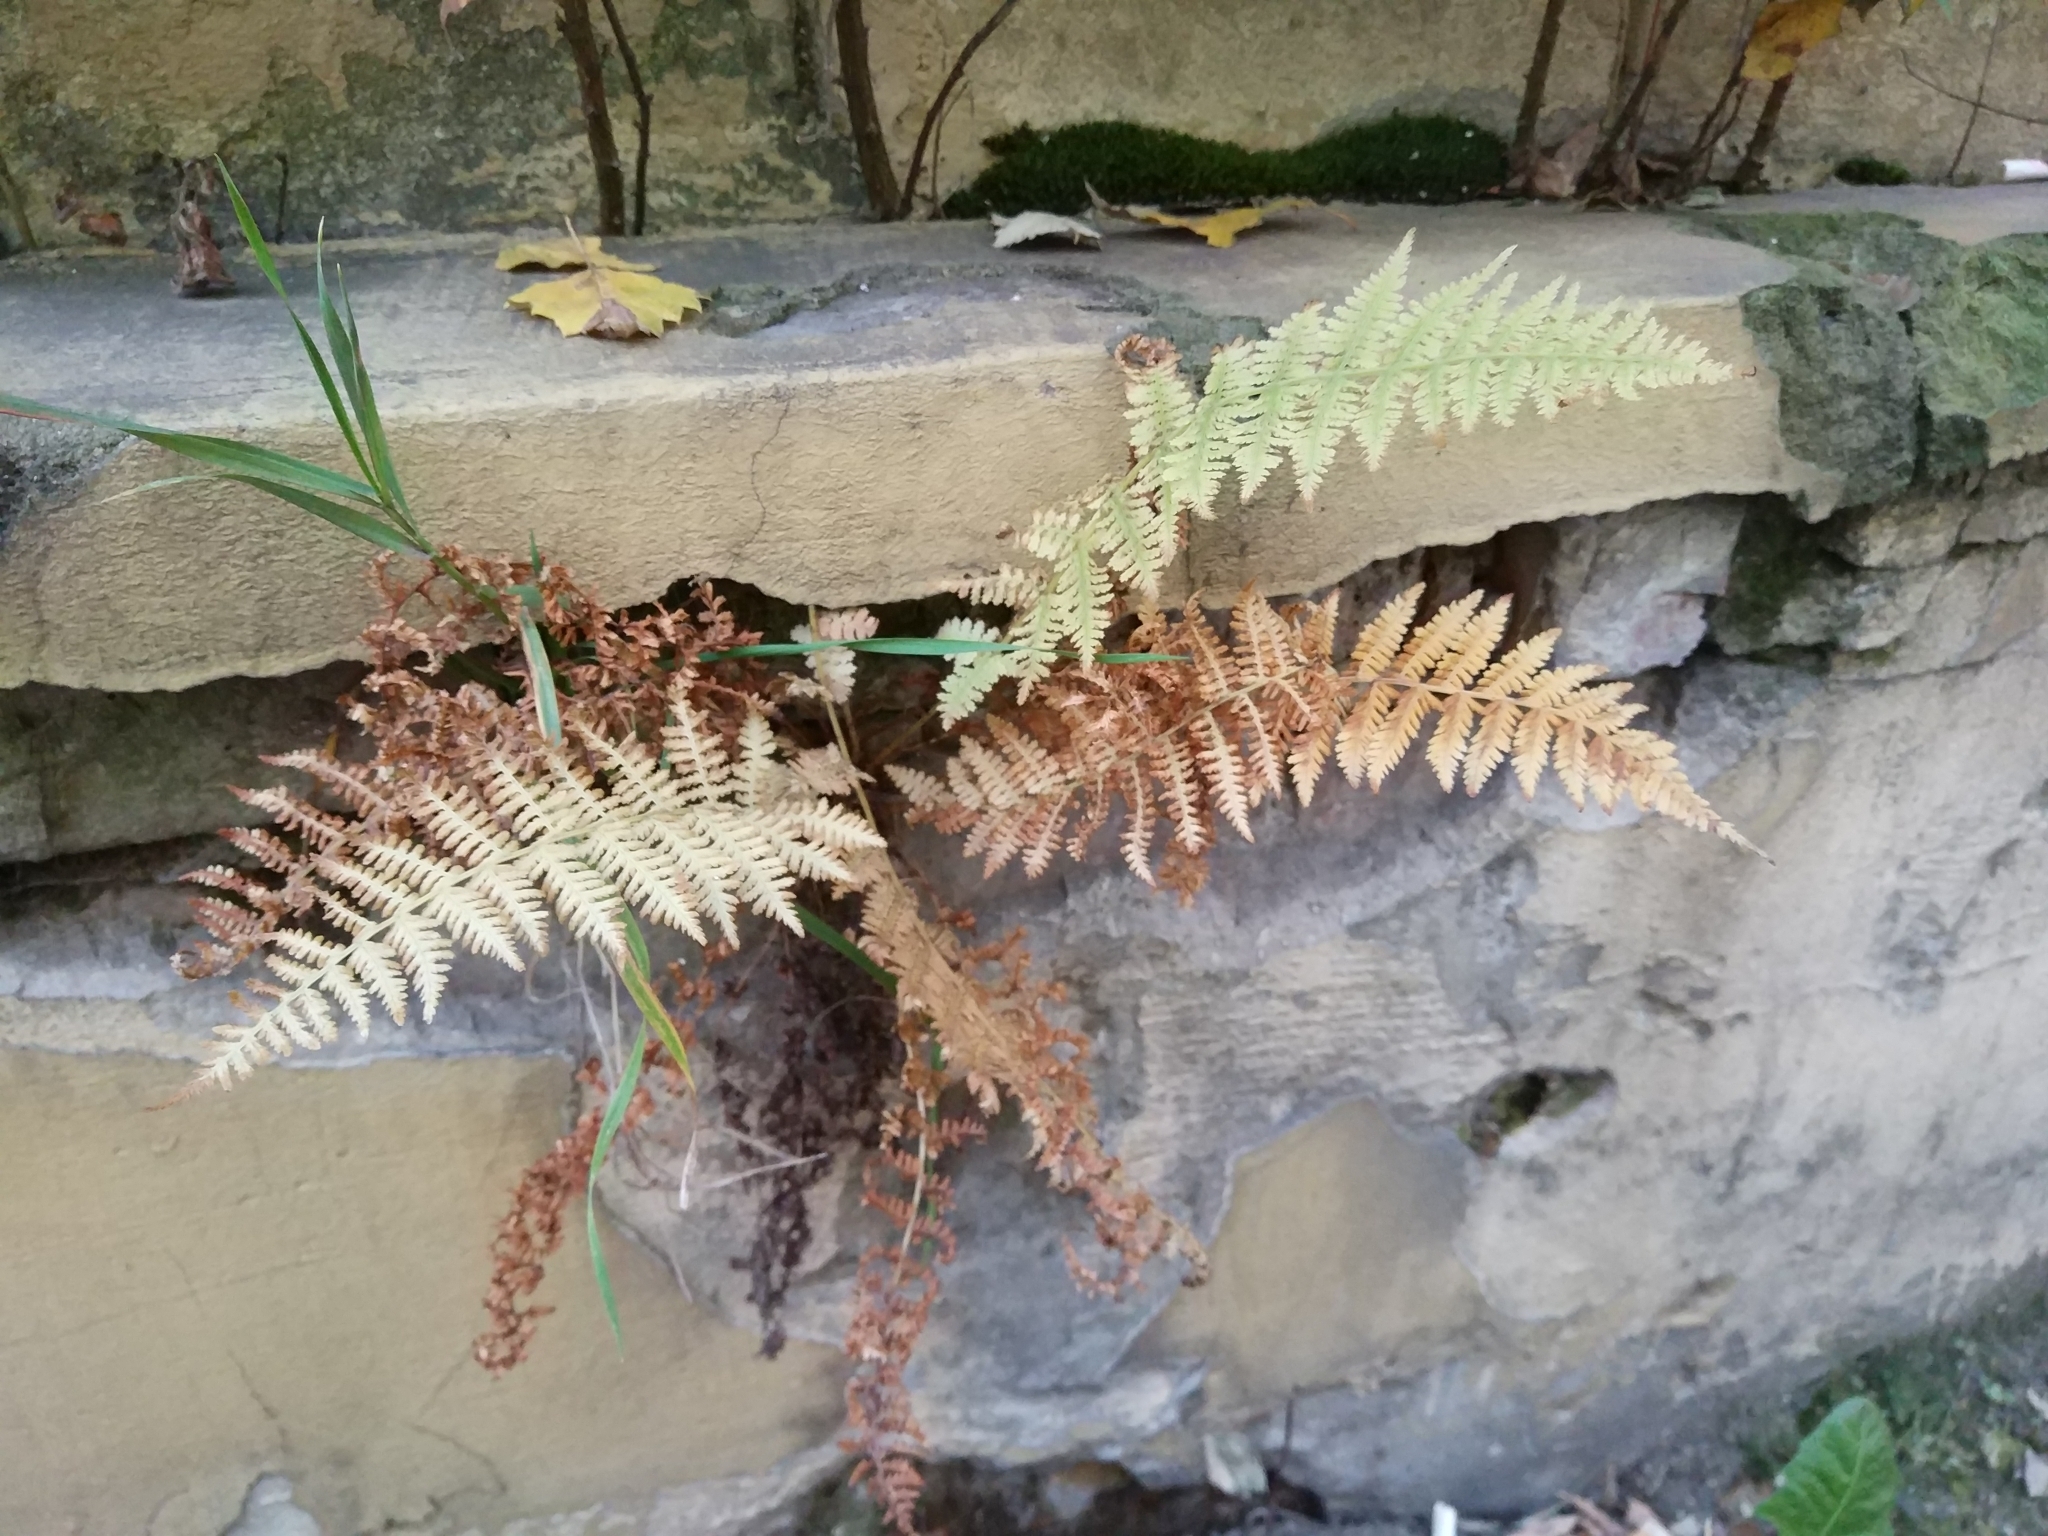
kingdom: Plantae
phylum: Tracheophyta
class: Polypodiopsida
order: Polypodiales
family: Athyriaceae
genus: Athyrium
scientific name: Athyrium filix-femina
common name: Lady fern
